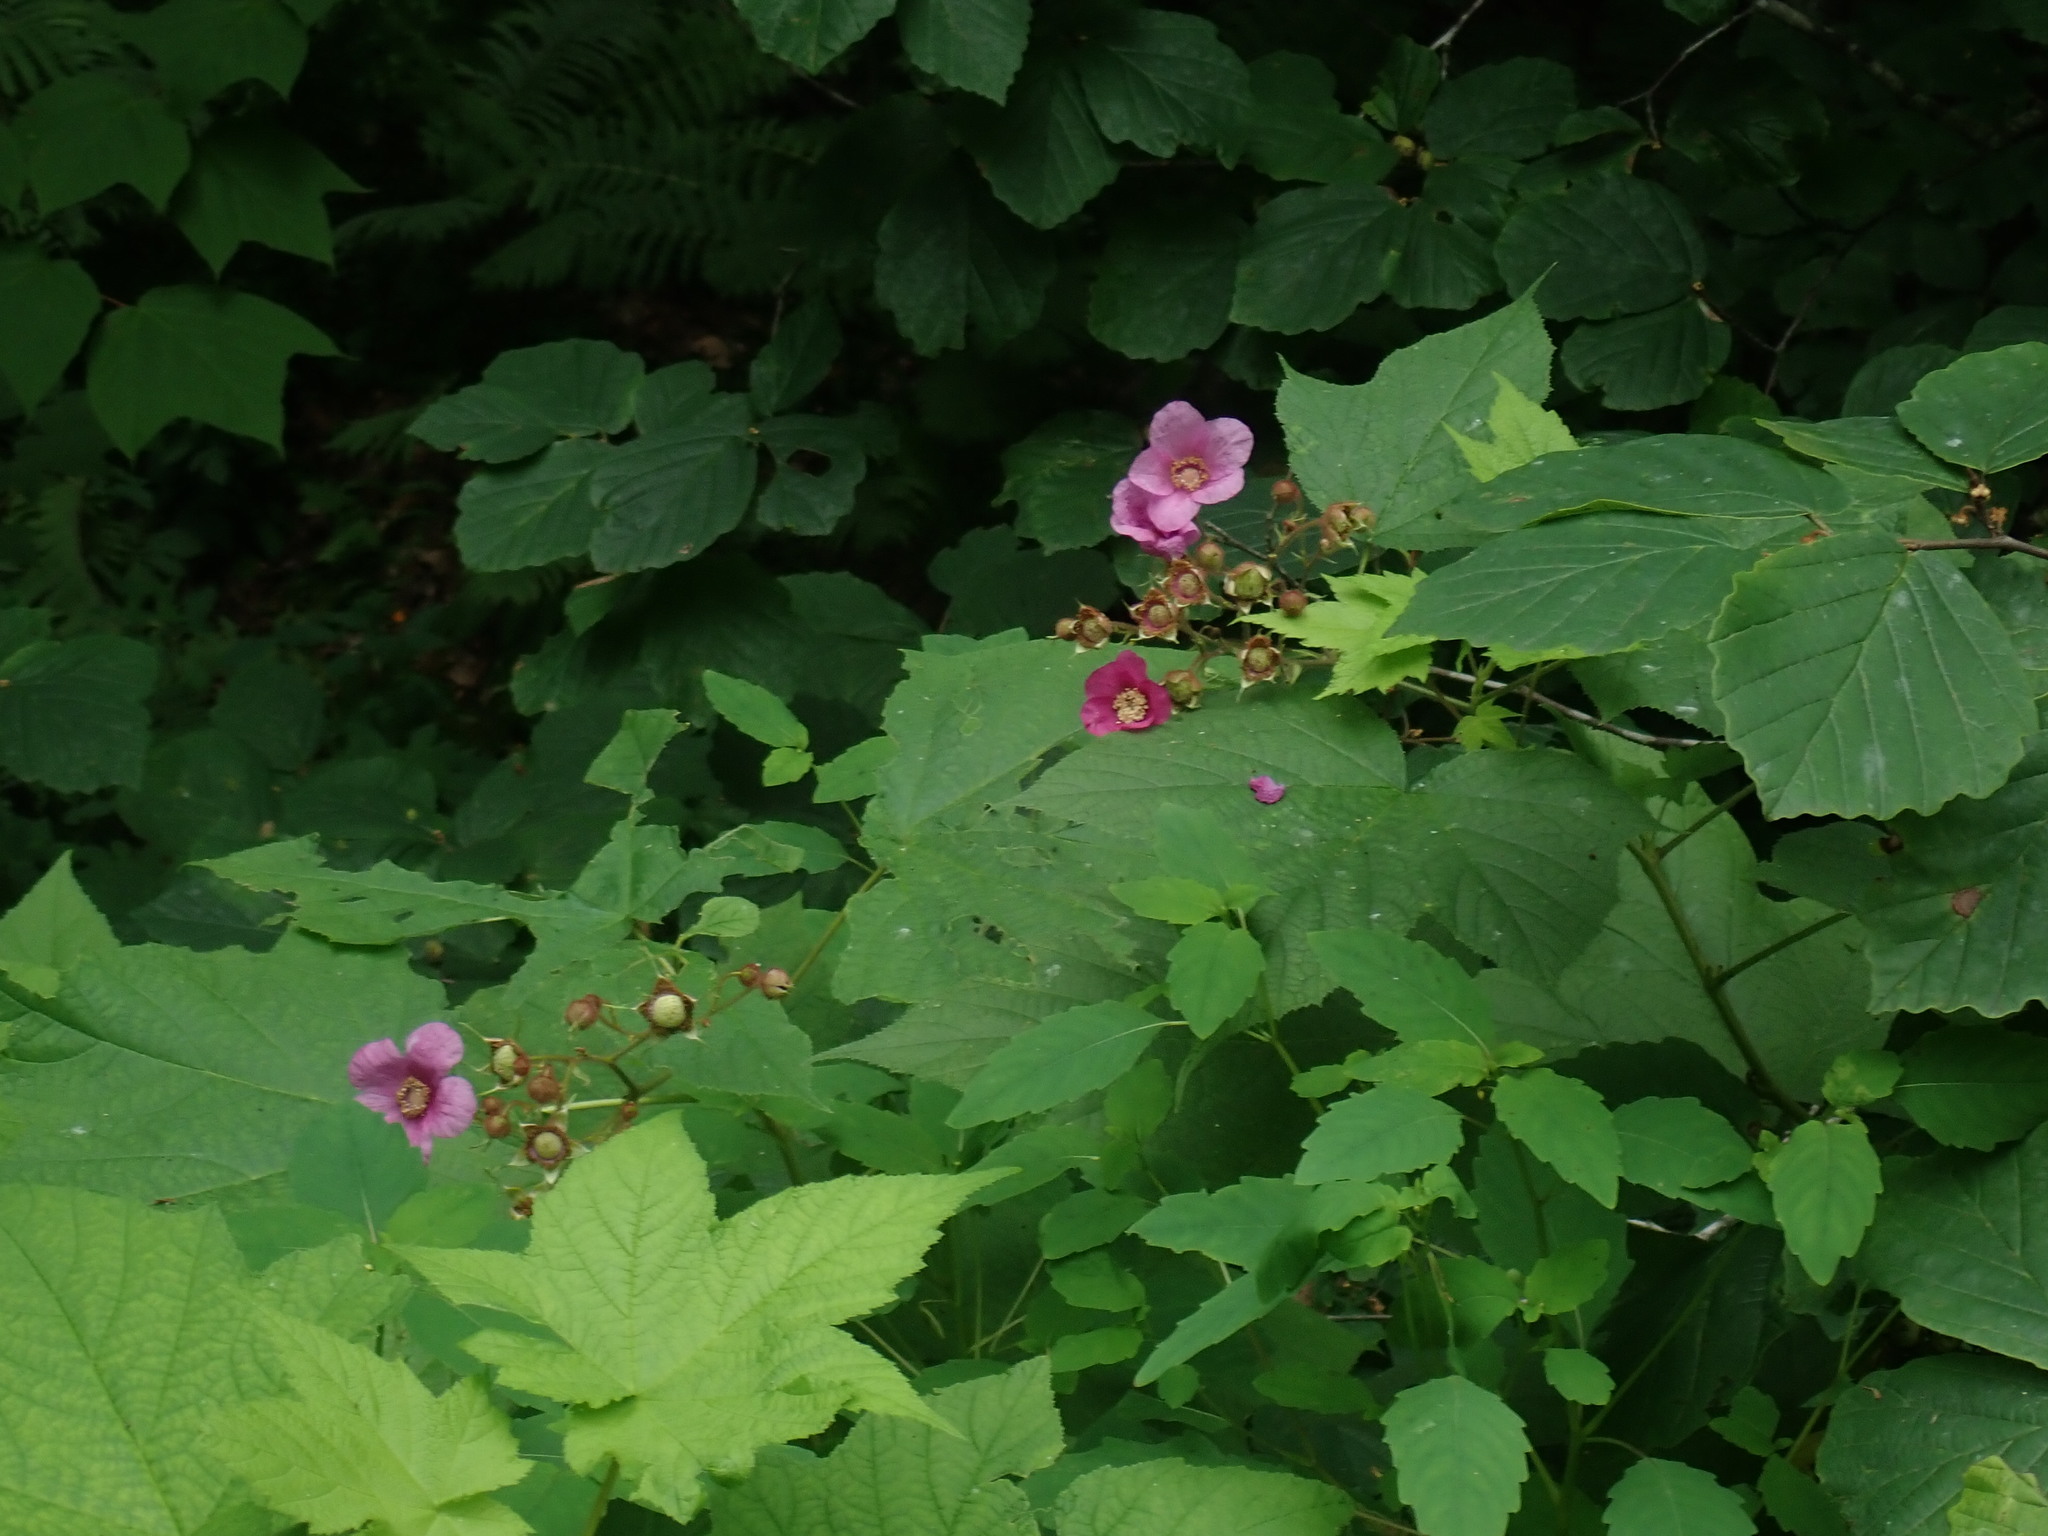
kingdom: Plantae
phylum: Tracheophyta
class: Magnoliopsida
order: Rosales
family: Rosaceae
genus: Rubus
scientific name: Rubus odoratus
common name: Purple-flowered raspberry
